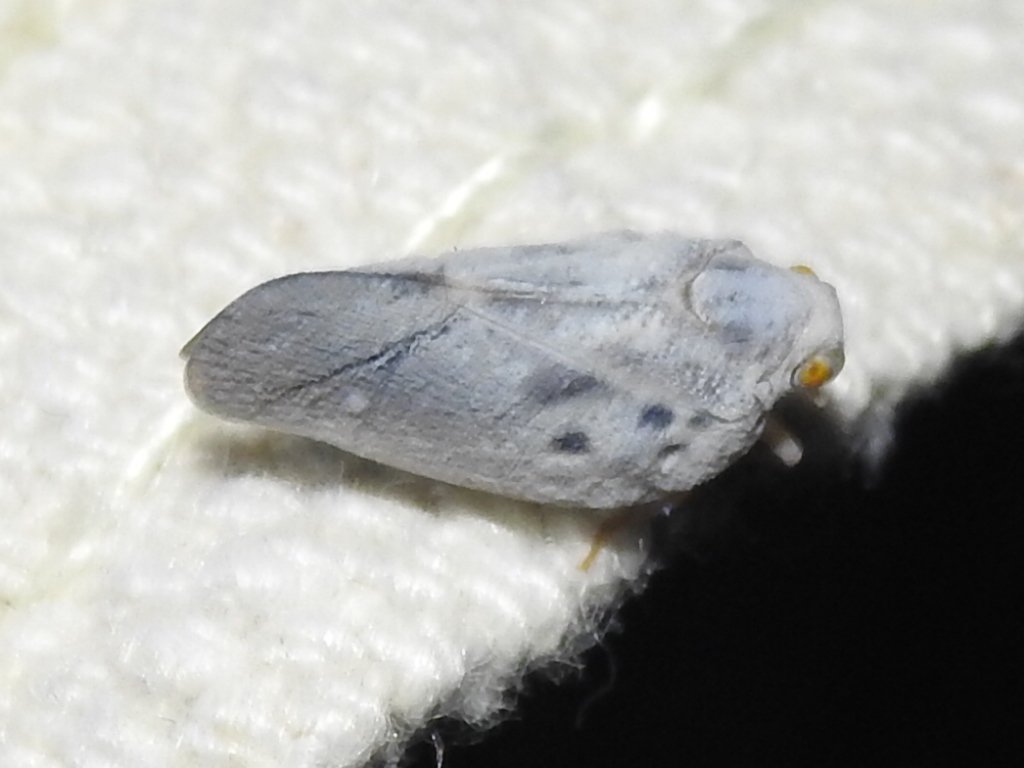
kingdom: Animalia
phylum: Arthropoda
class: Insecta
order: Hemiptera
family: Flatidae
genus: Metcalfa
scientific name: Metcalfa pruinosa
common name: Citrus flatid planthopper
